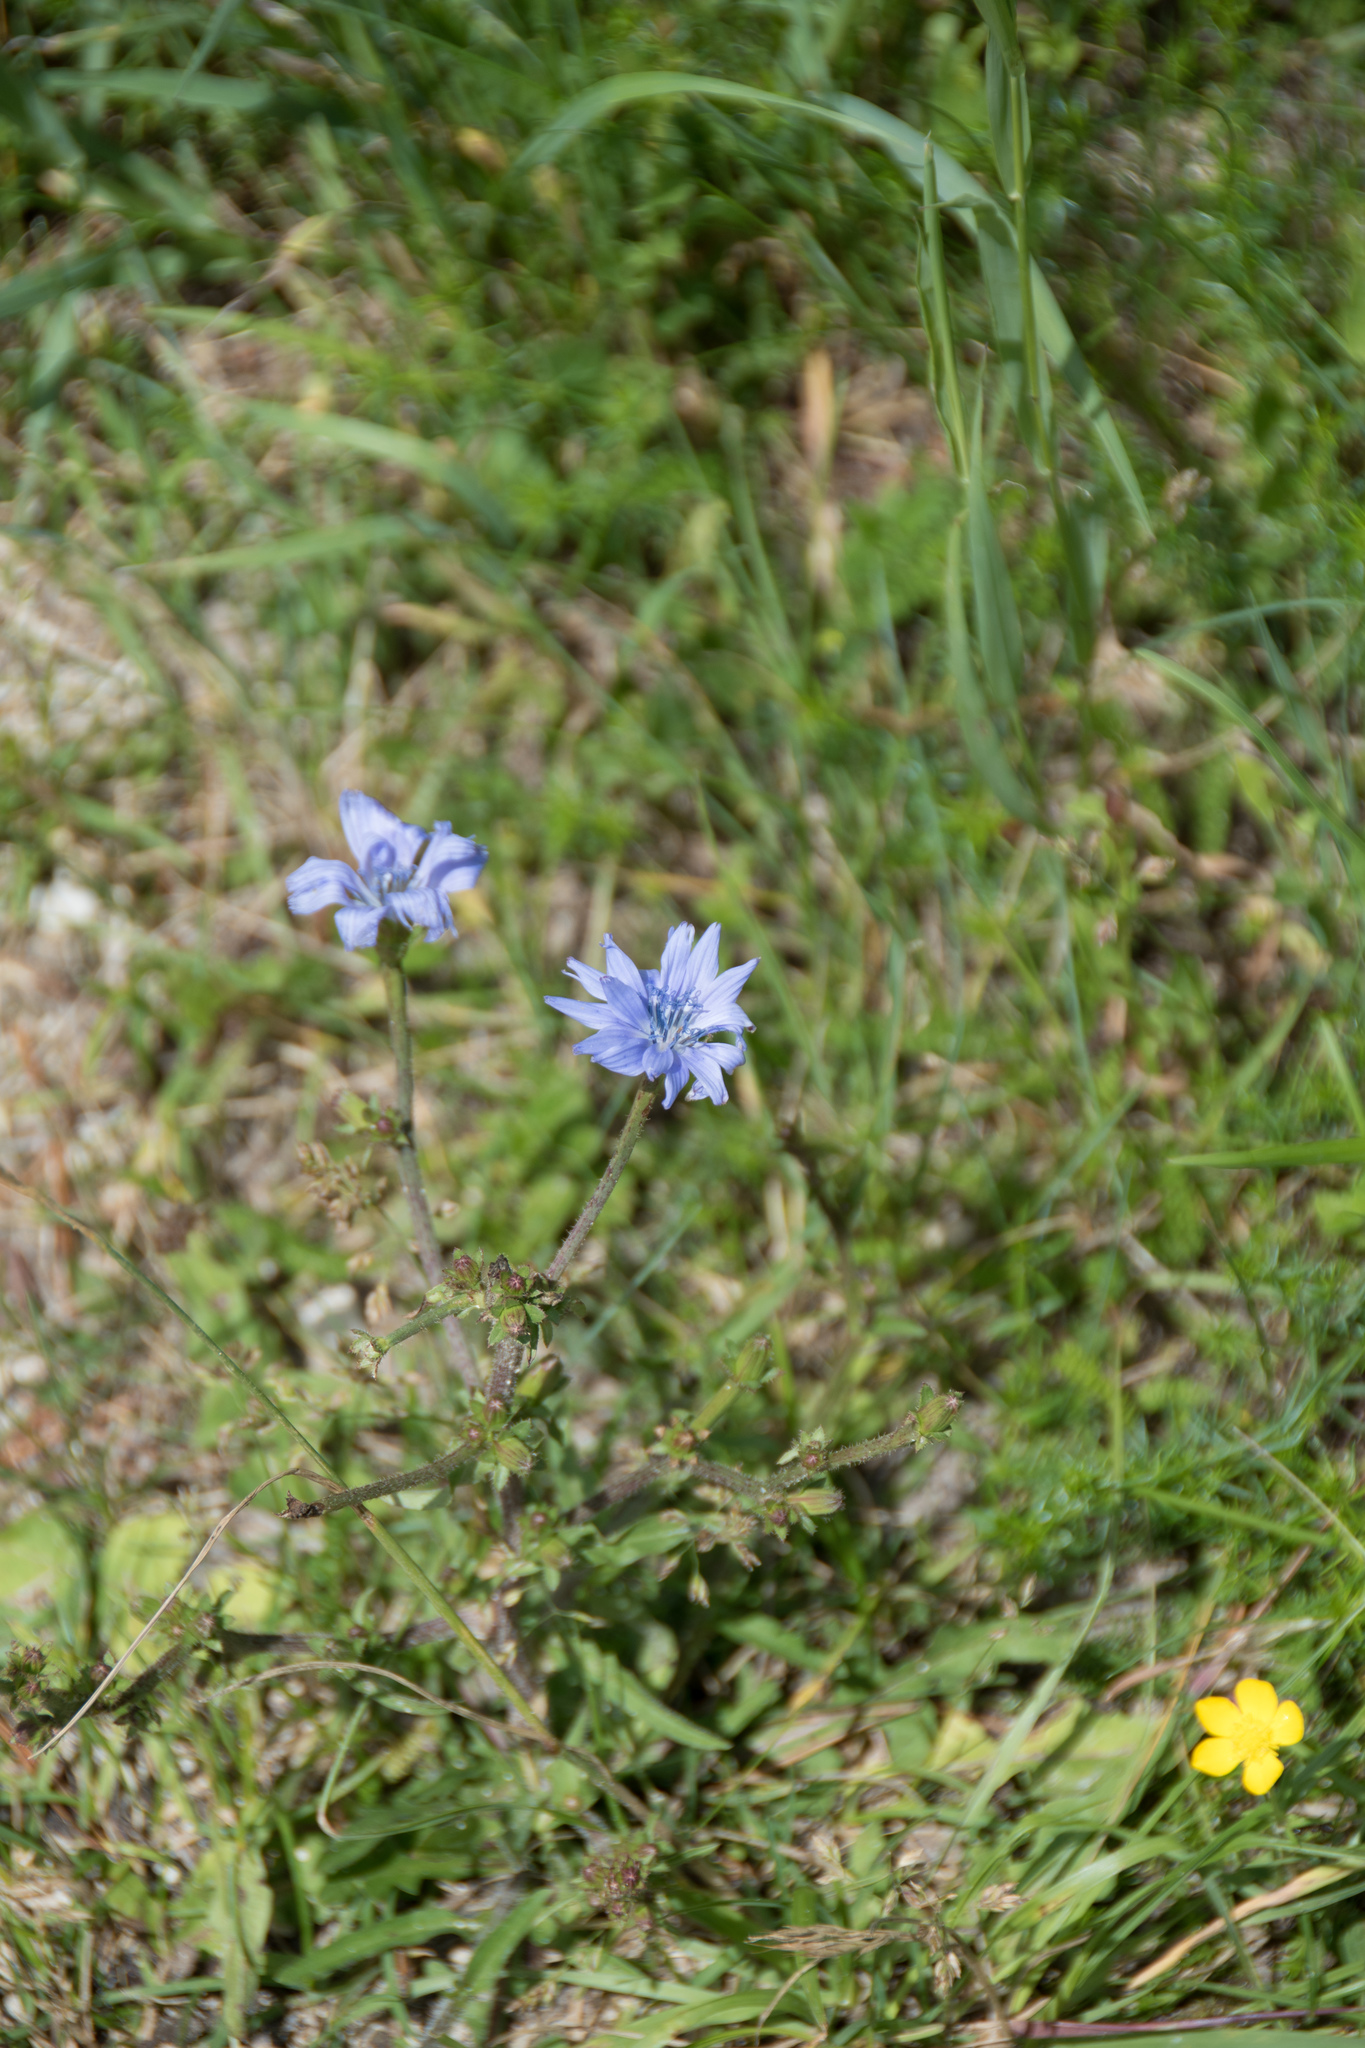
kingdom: Plantae
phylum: Tracheophyta
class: Magnoliopsida
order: Asterales
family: Asteraceae
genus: Cichorium
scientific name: Cichorium intybus
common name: Chicory
